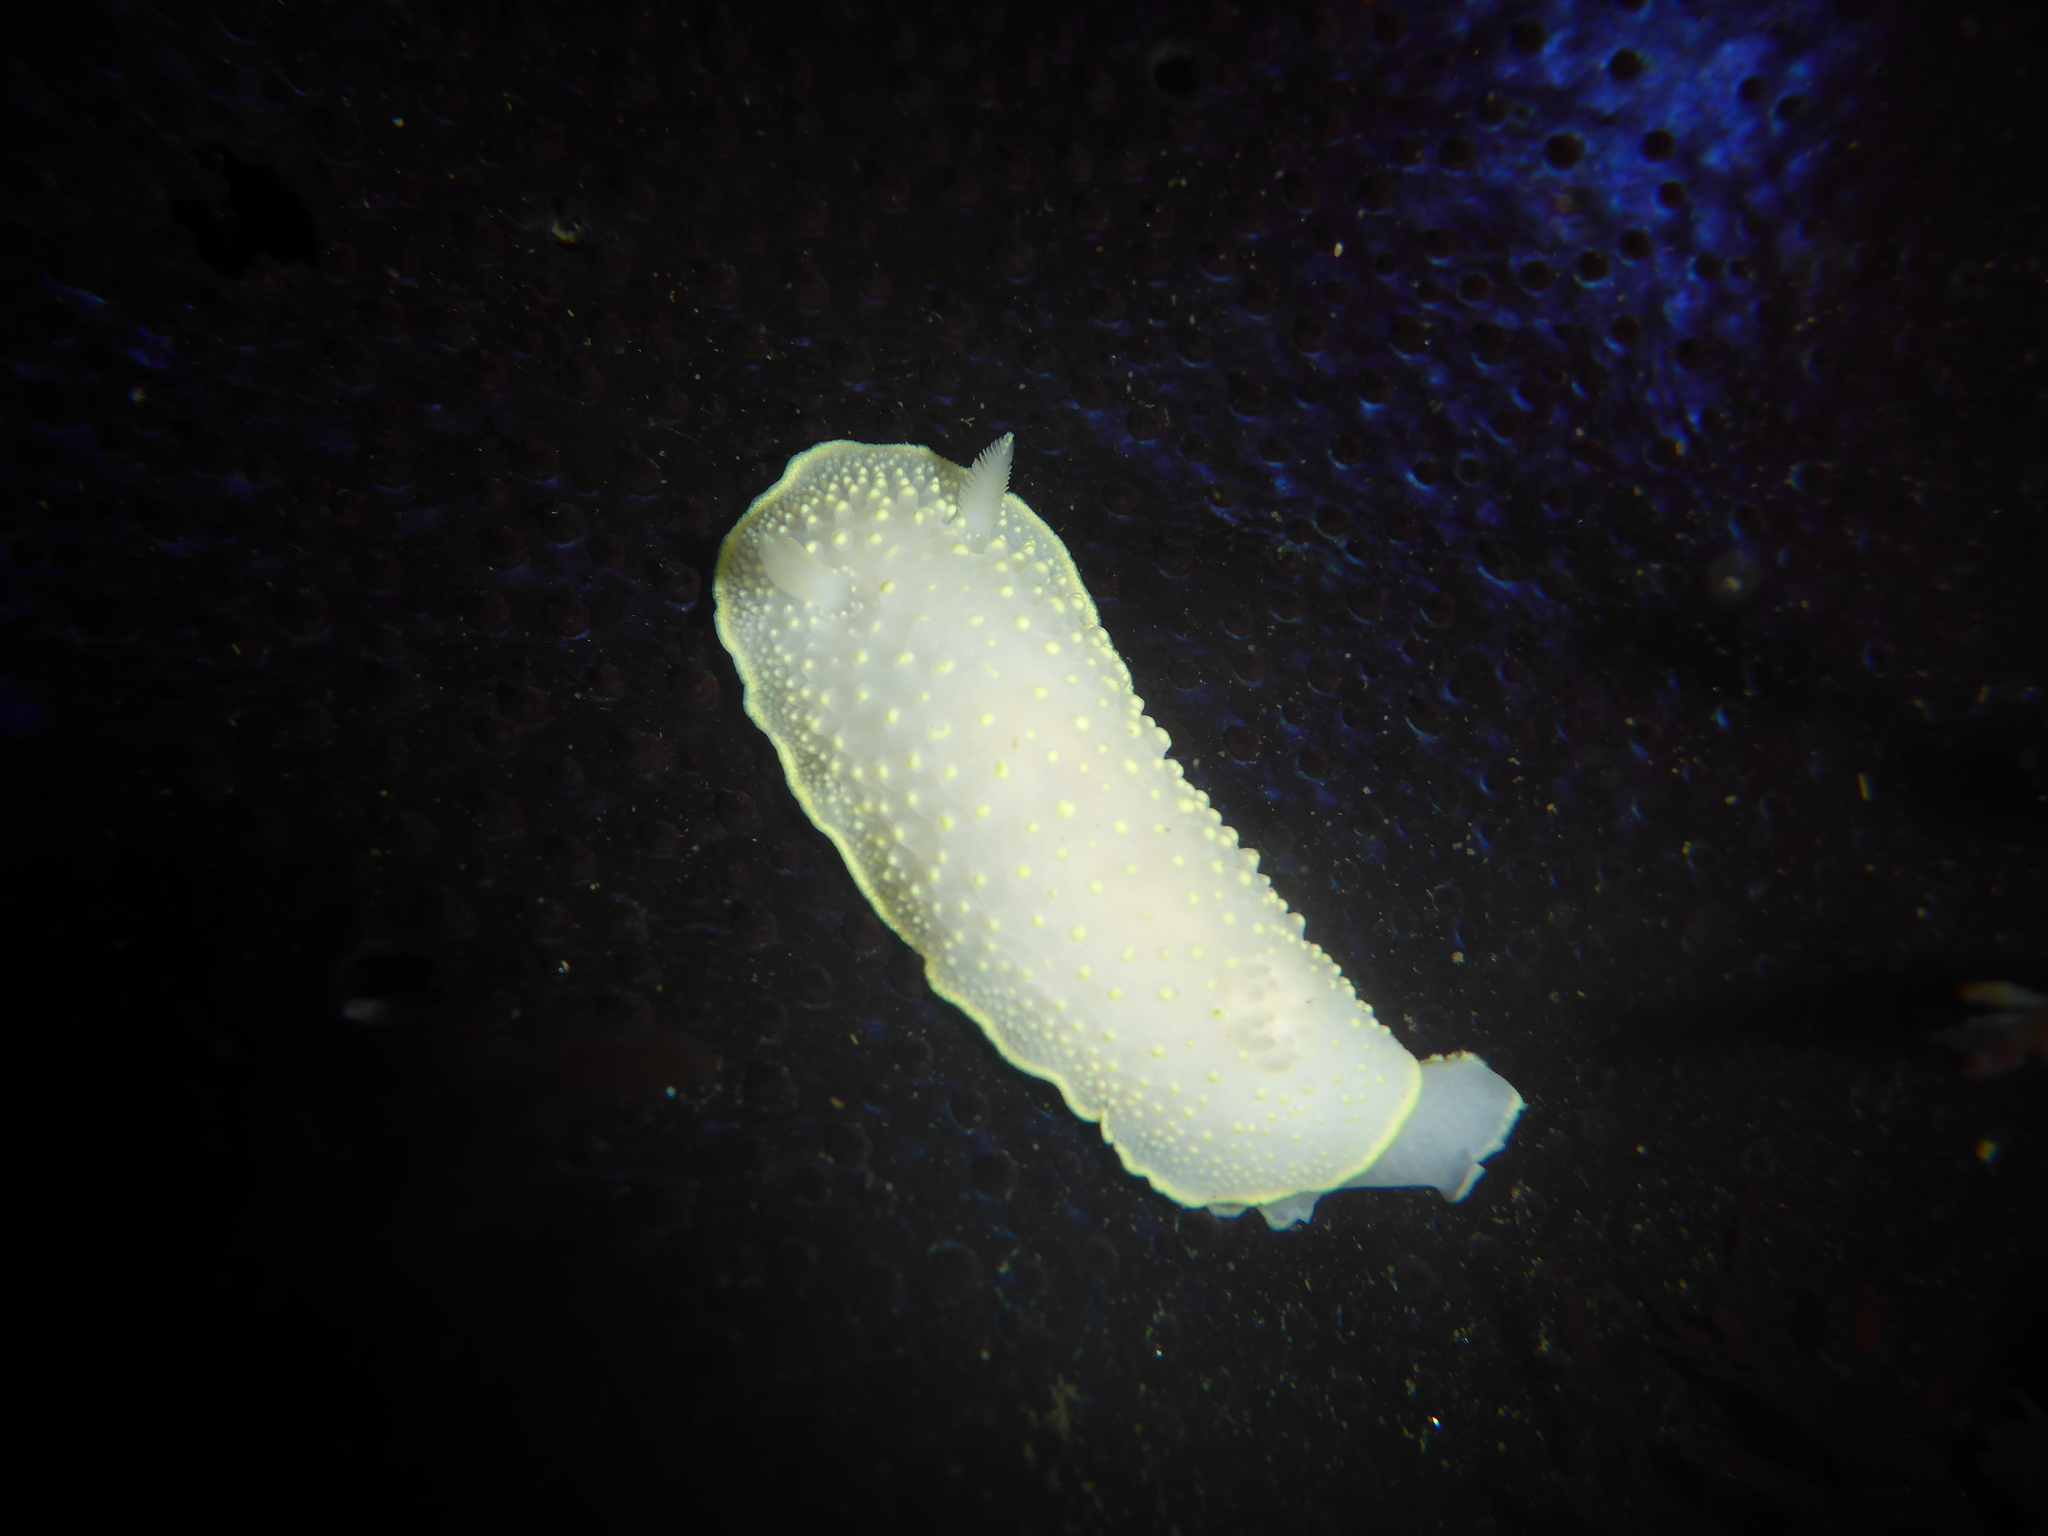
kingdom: Animalia
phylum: Mollusca
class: Gastropoda
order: Nudibranchia
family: Cadlinidae
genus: Cadlina
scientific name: Cadlina luteomarginata
